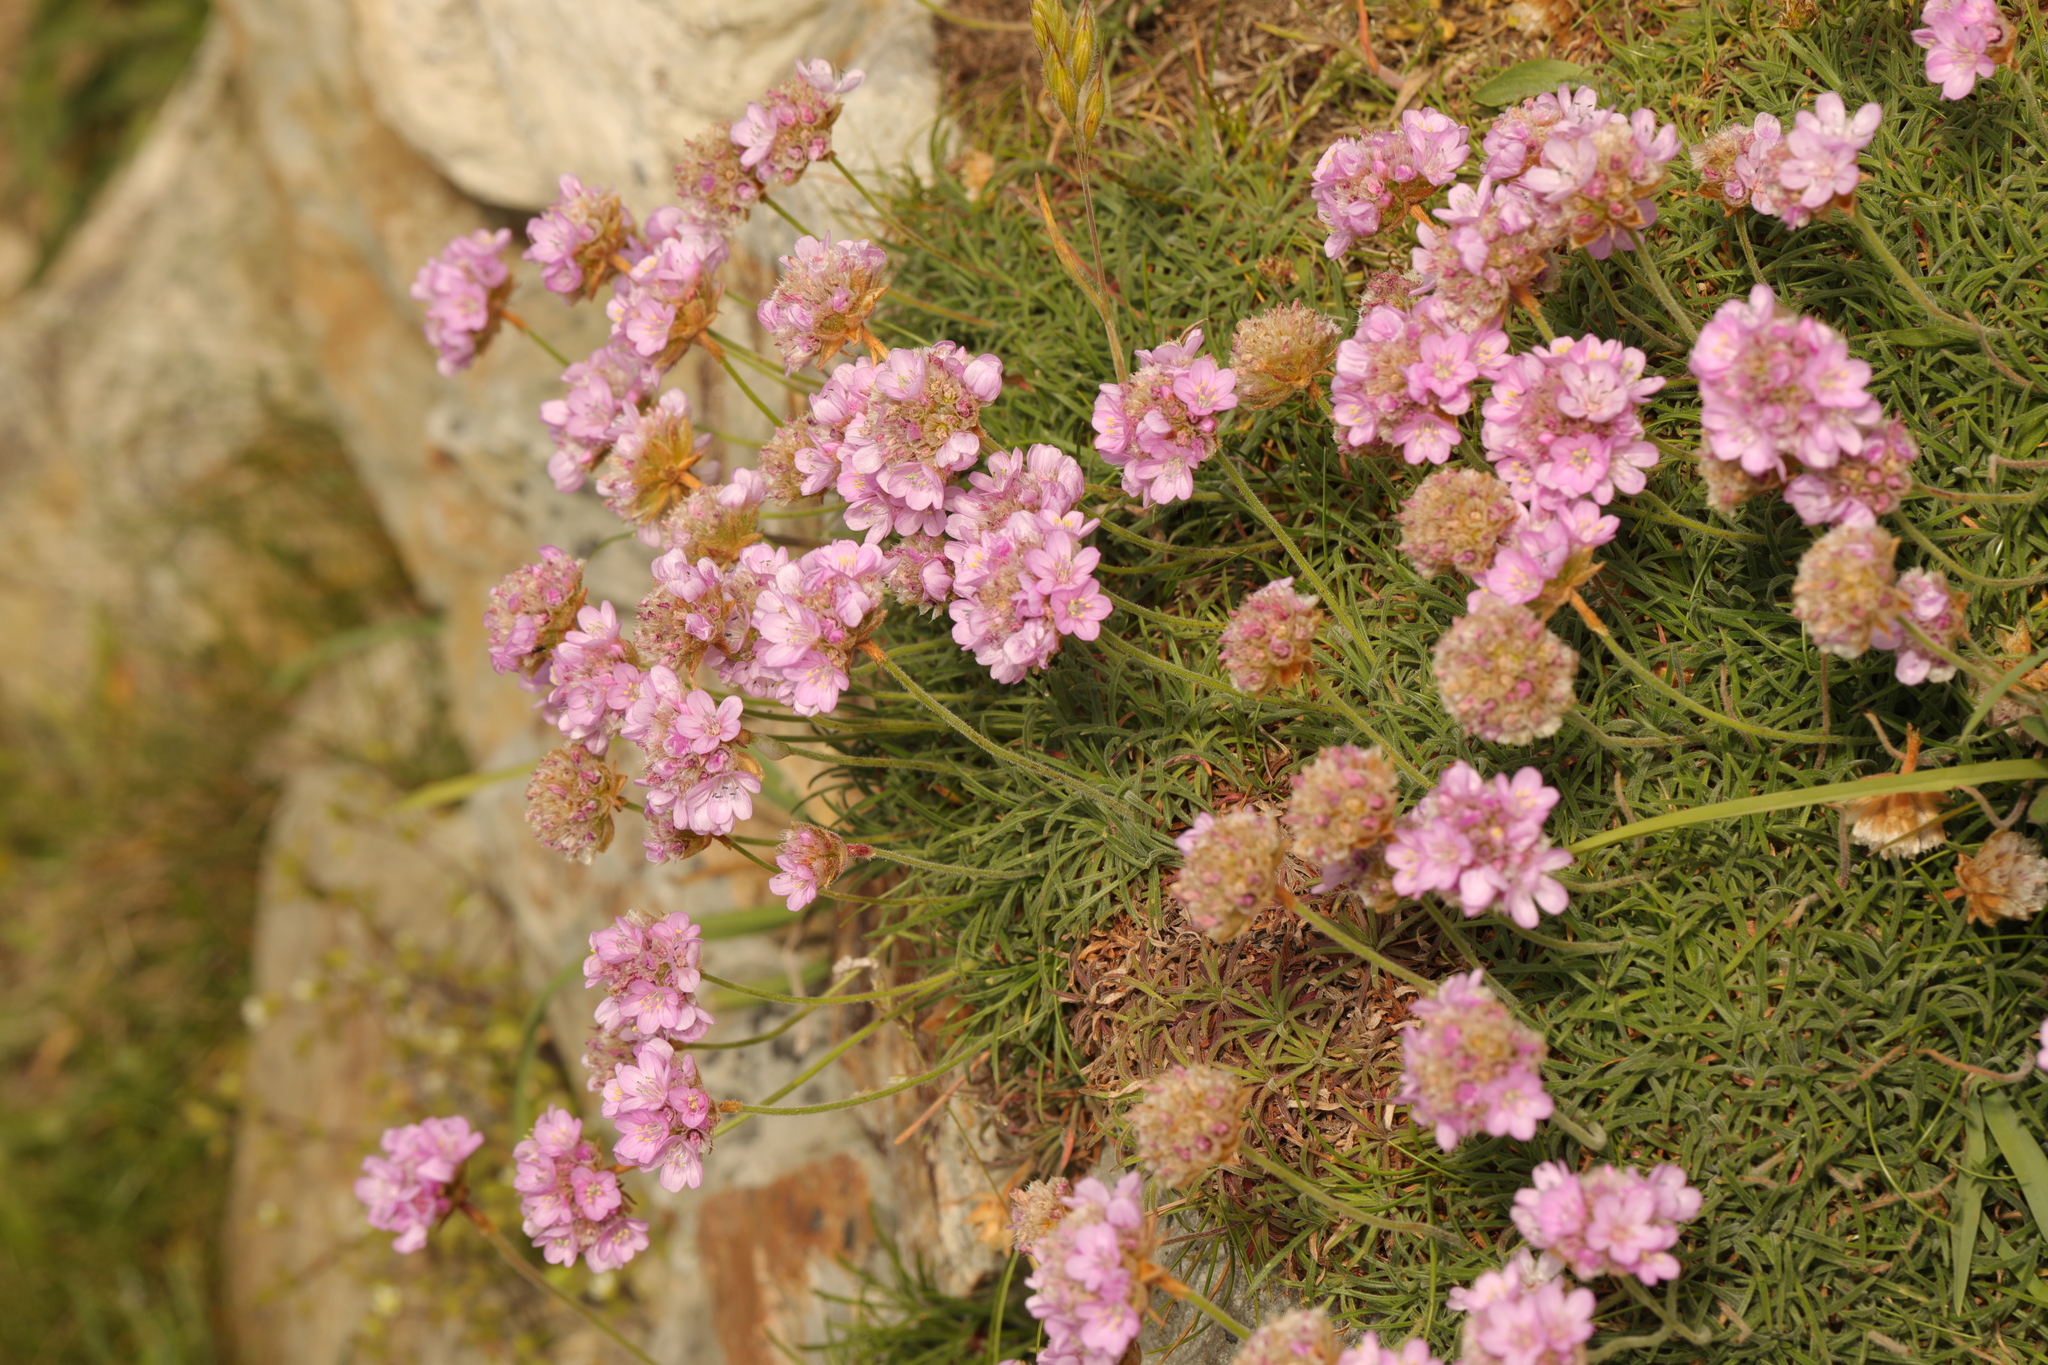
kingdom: Plantae
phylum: Tracheophyta
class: Magnoliopsida
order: Caryophyllales
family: Plumbaginaceae
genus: Armeria
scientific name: Armeria maritima
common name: Thrift
